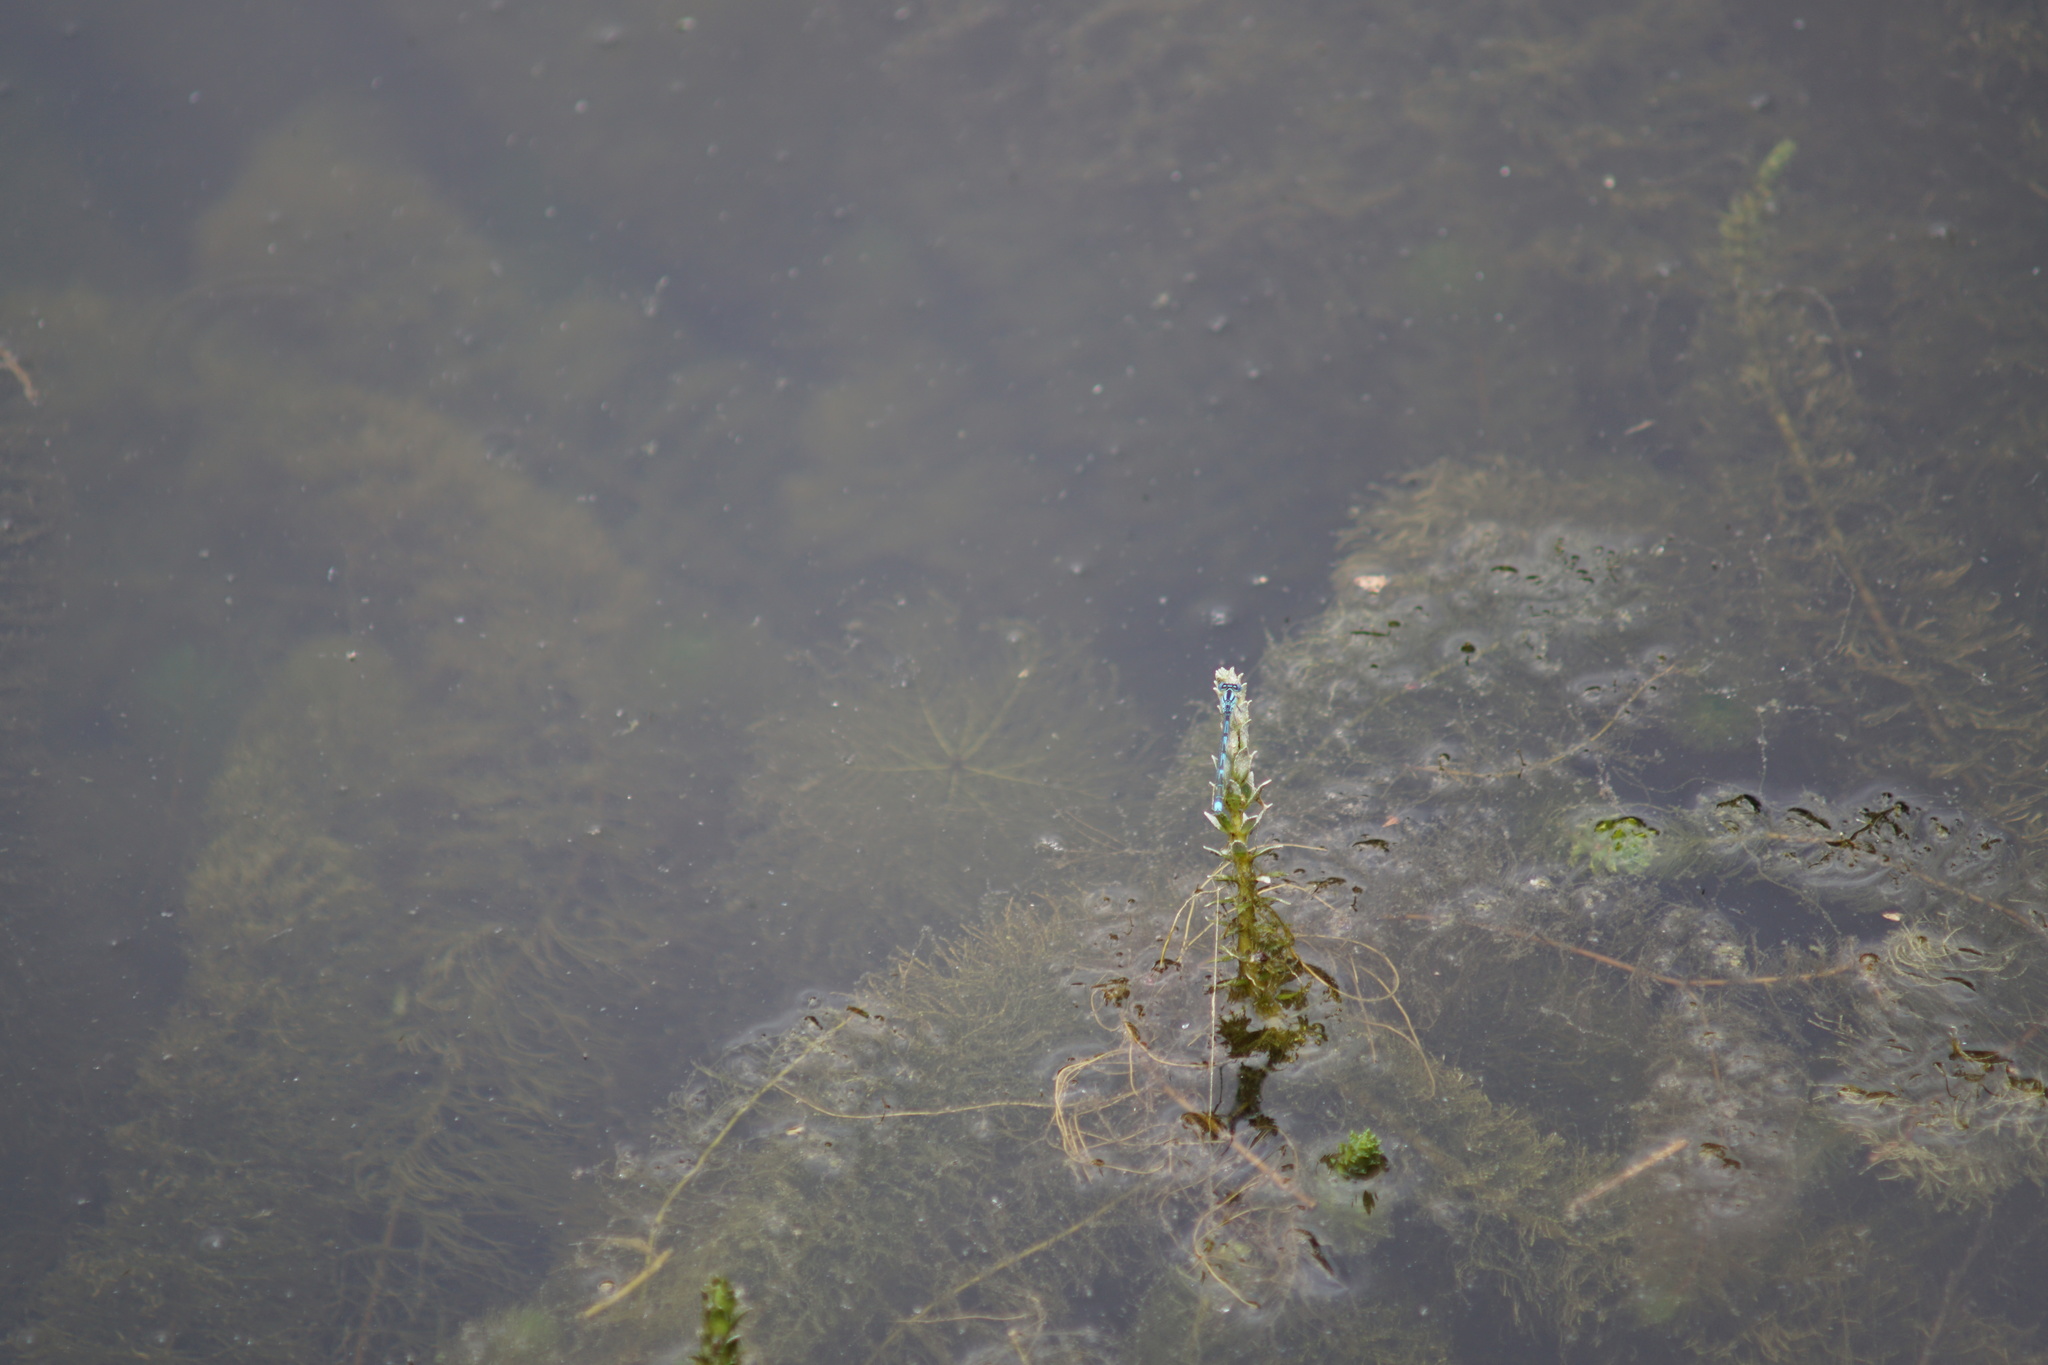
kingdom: Animalia
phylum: Arthropoda
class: Insecta
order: Odonata
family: Coenagrionidae
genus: Erythromma
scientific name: Erythromma lindenii
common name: Blue-eye
